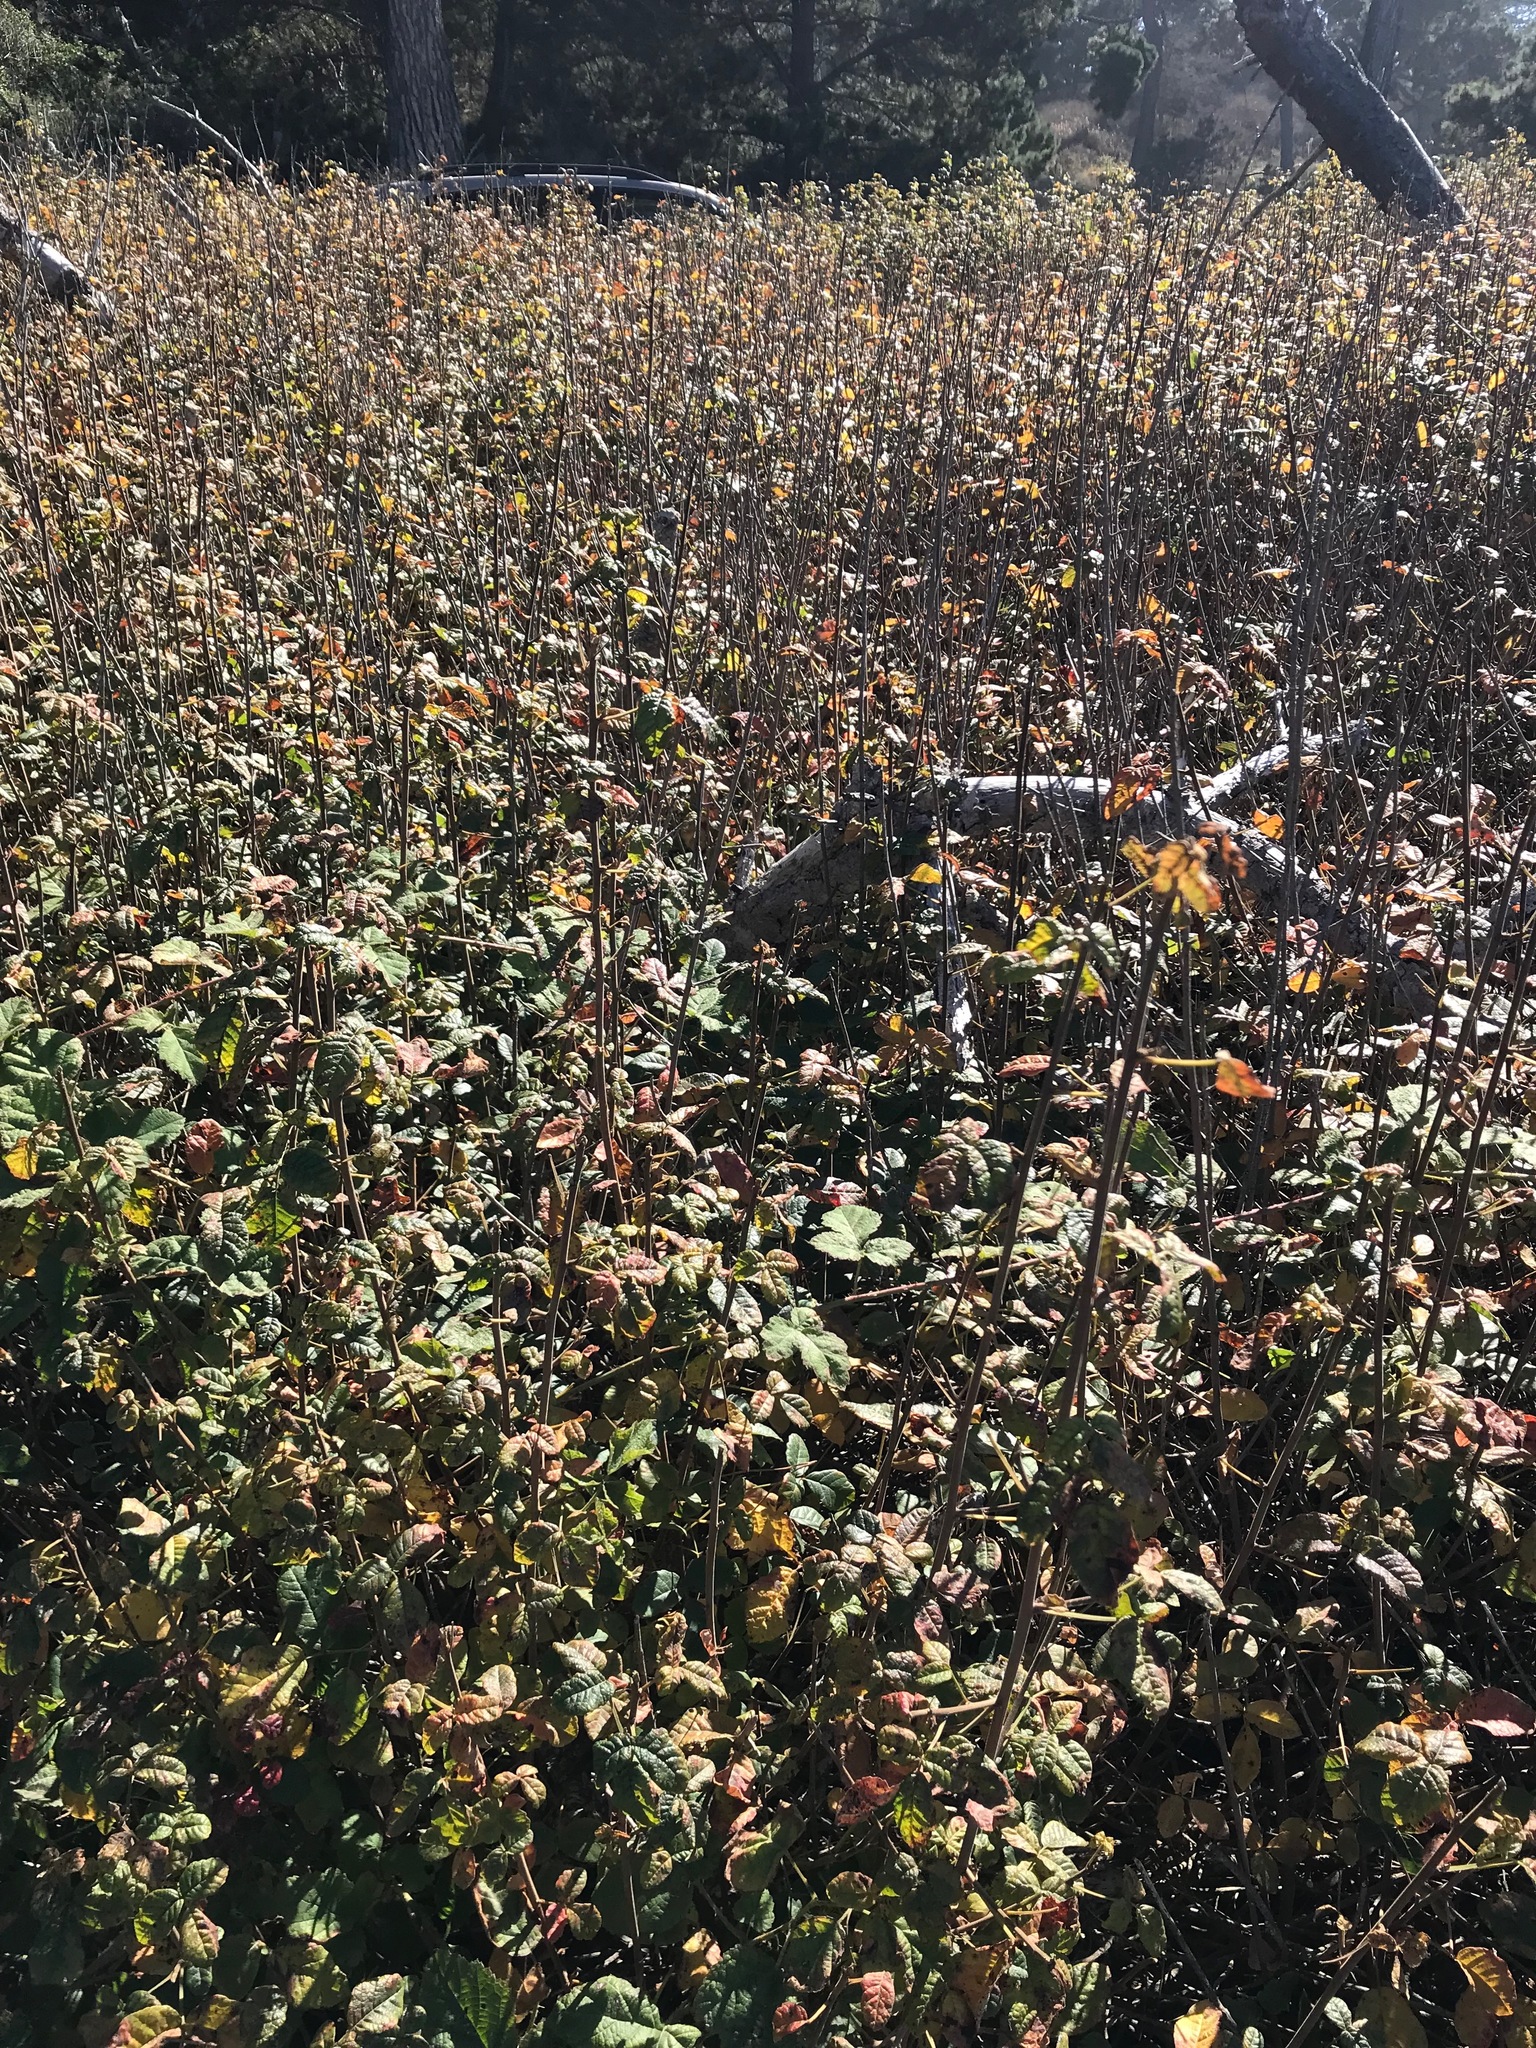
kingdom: Plantae
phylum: Tracheophyta
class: Magnoliopsida
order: Sapindales
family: Anacardiaceae
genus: Toxicodendron
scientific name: Toxicodendron diversilobum
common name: Pacific poison-oak
